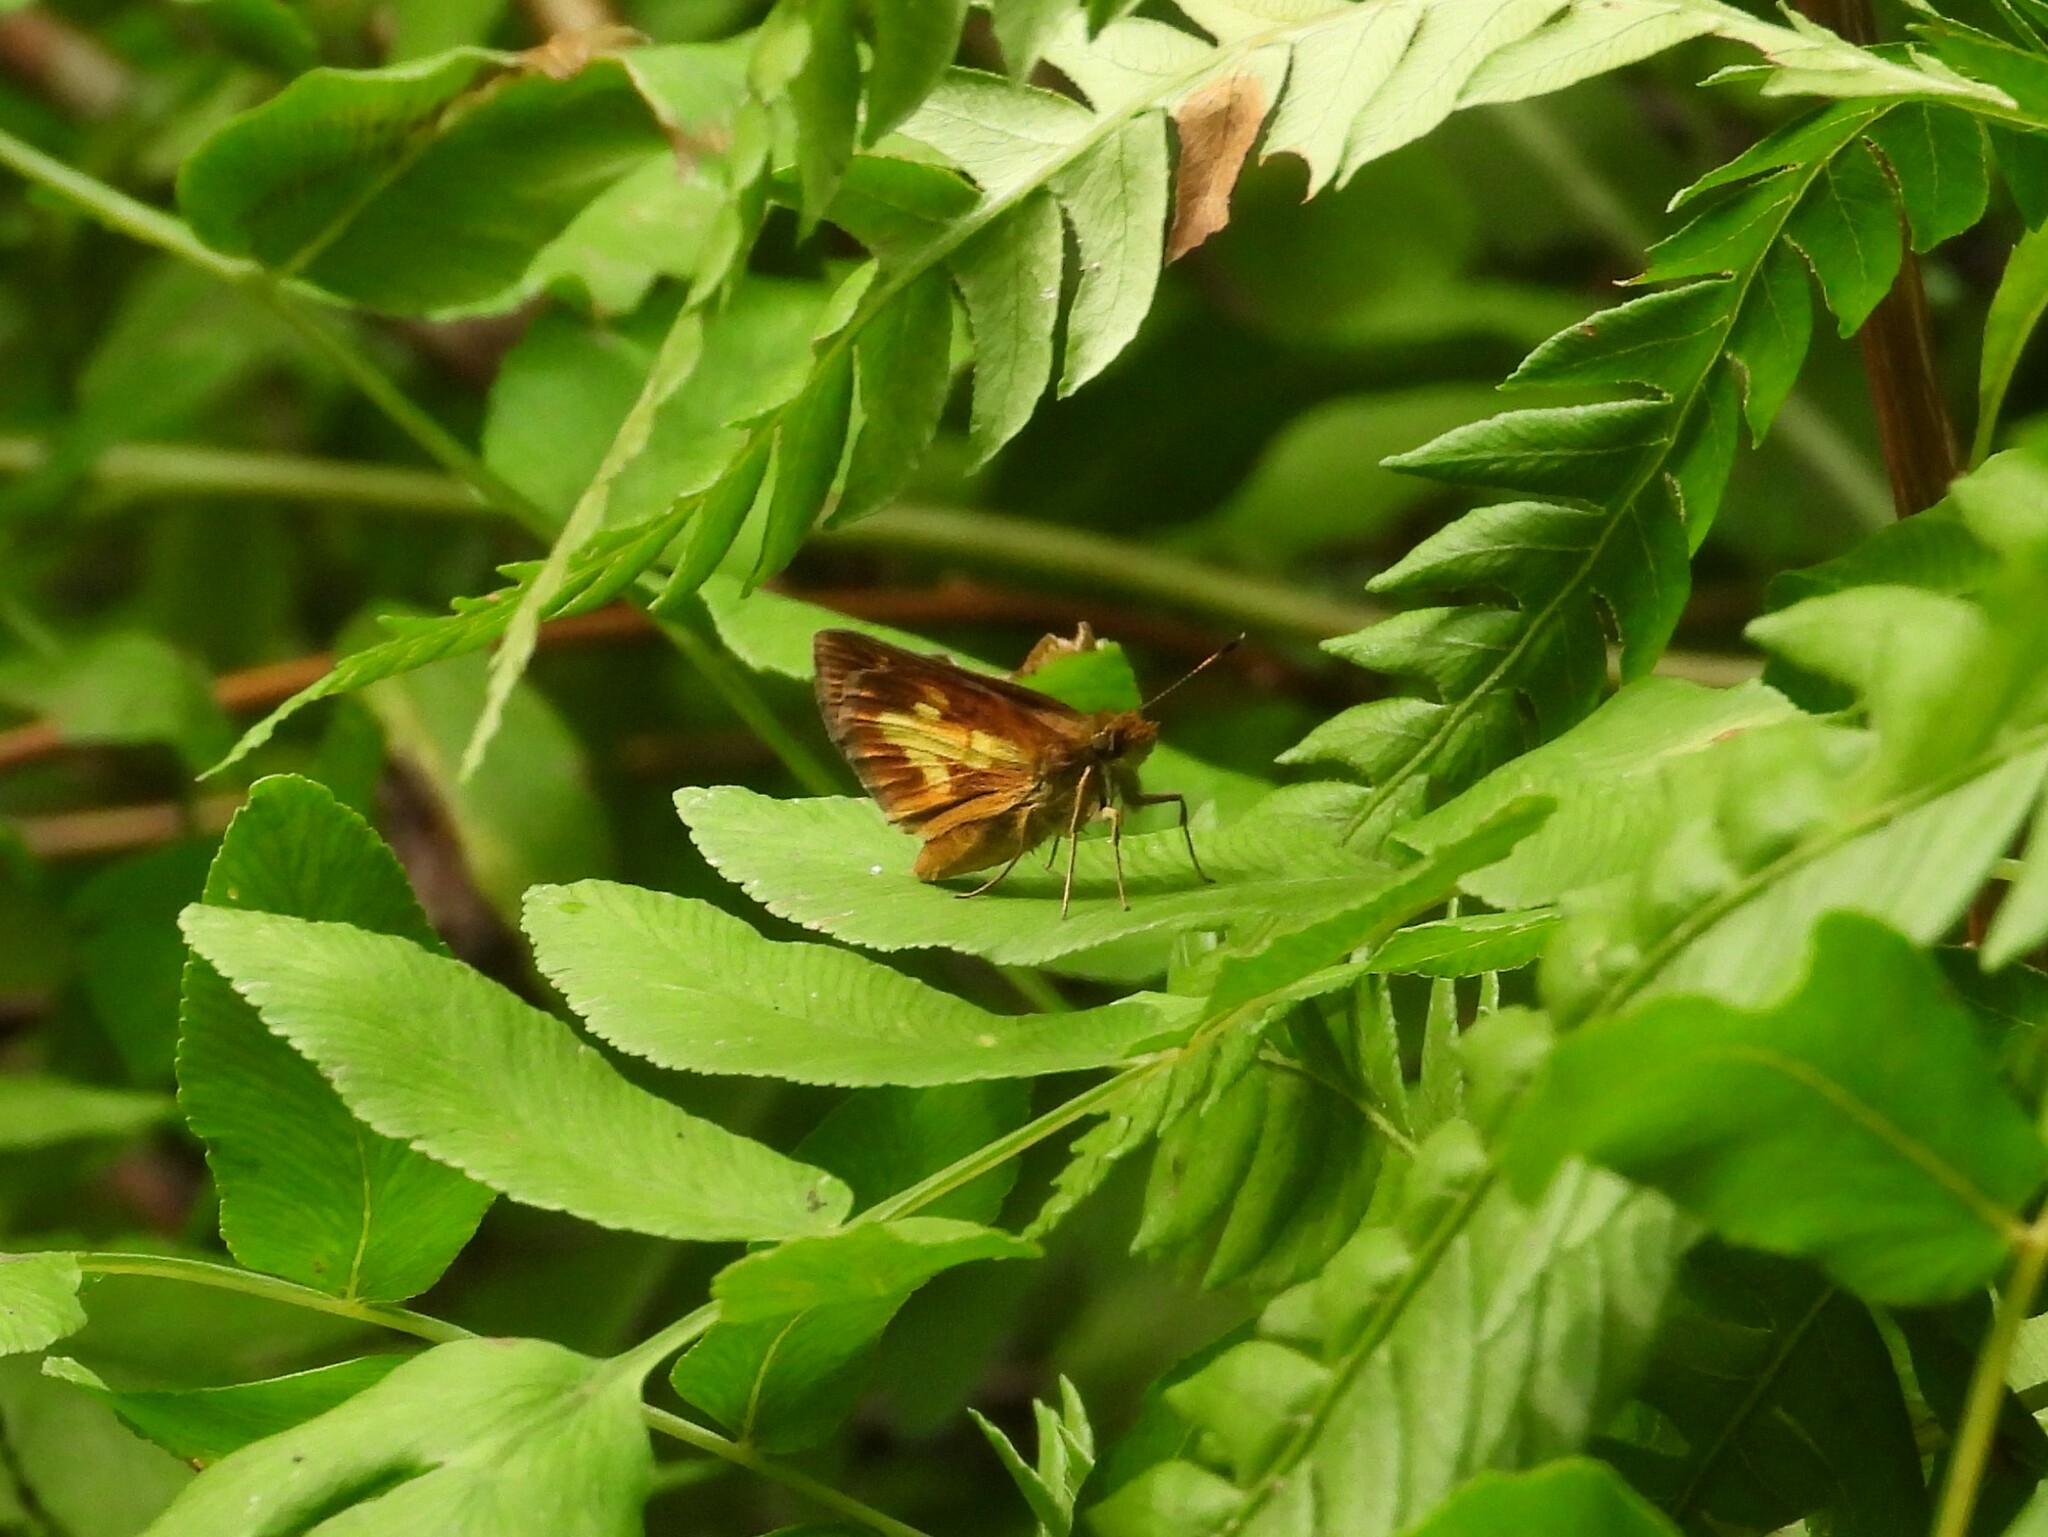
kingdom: Animalia
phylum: Arthropoda
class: Insecta
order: Lepidoptera
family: Hesperiidae
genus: Poanes
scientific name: Poanes massasoit
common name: Mulberrywing
